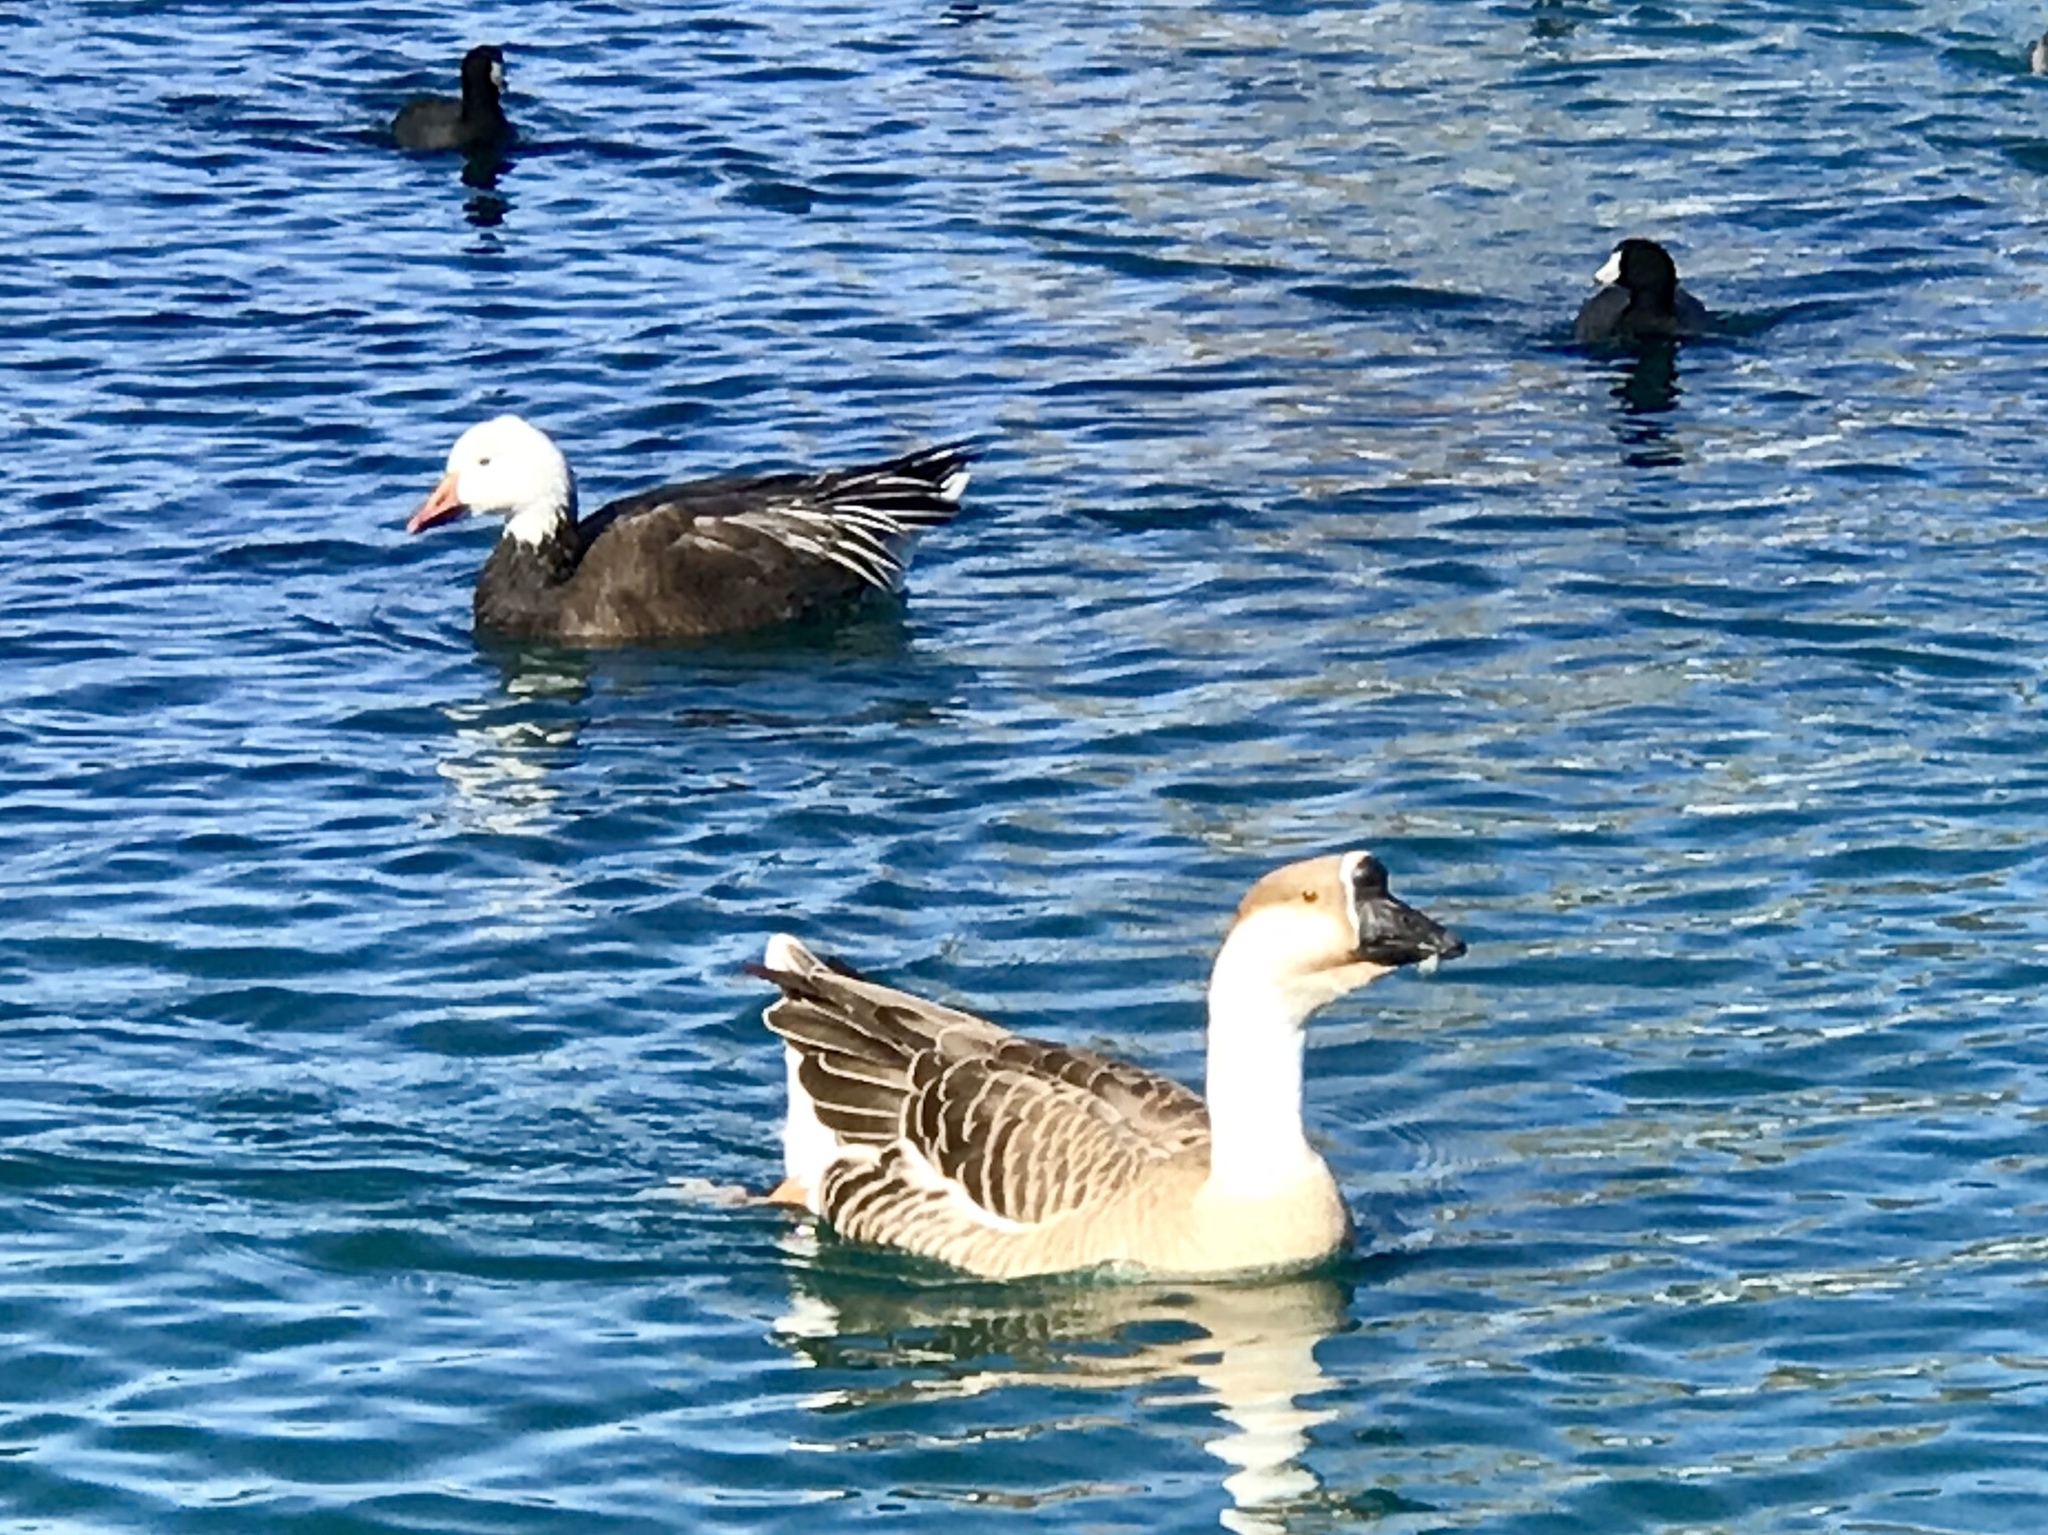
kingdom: Animalia
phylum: Chordata
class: Aves
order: Anseriformes
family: Anatidae
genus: Anser
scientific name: Anser cygnoides
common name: Swan goose
